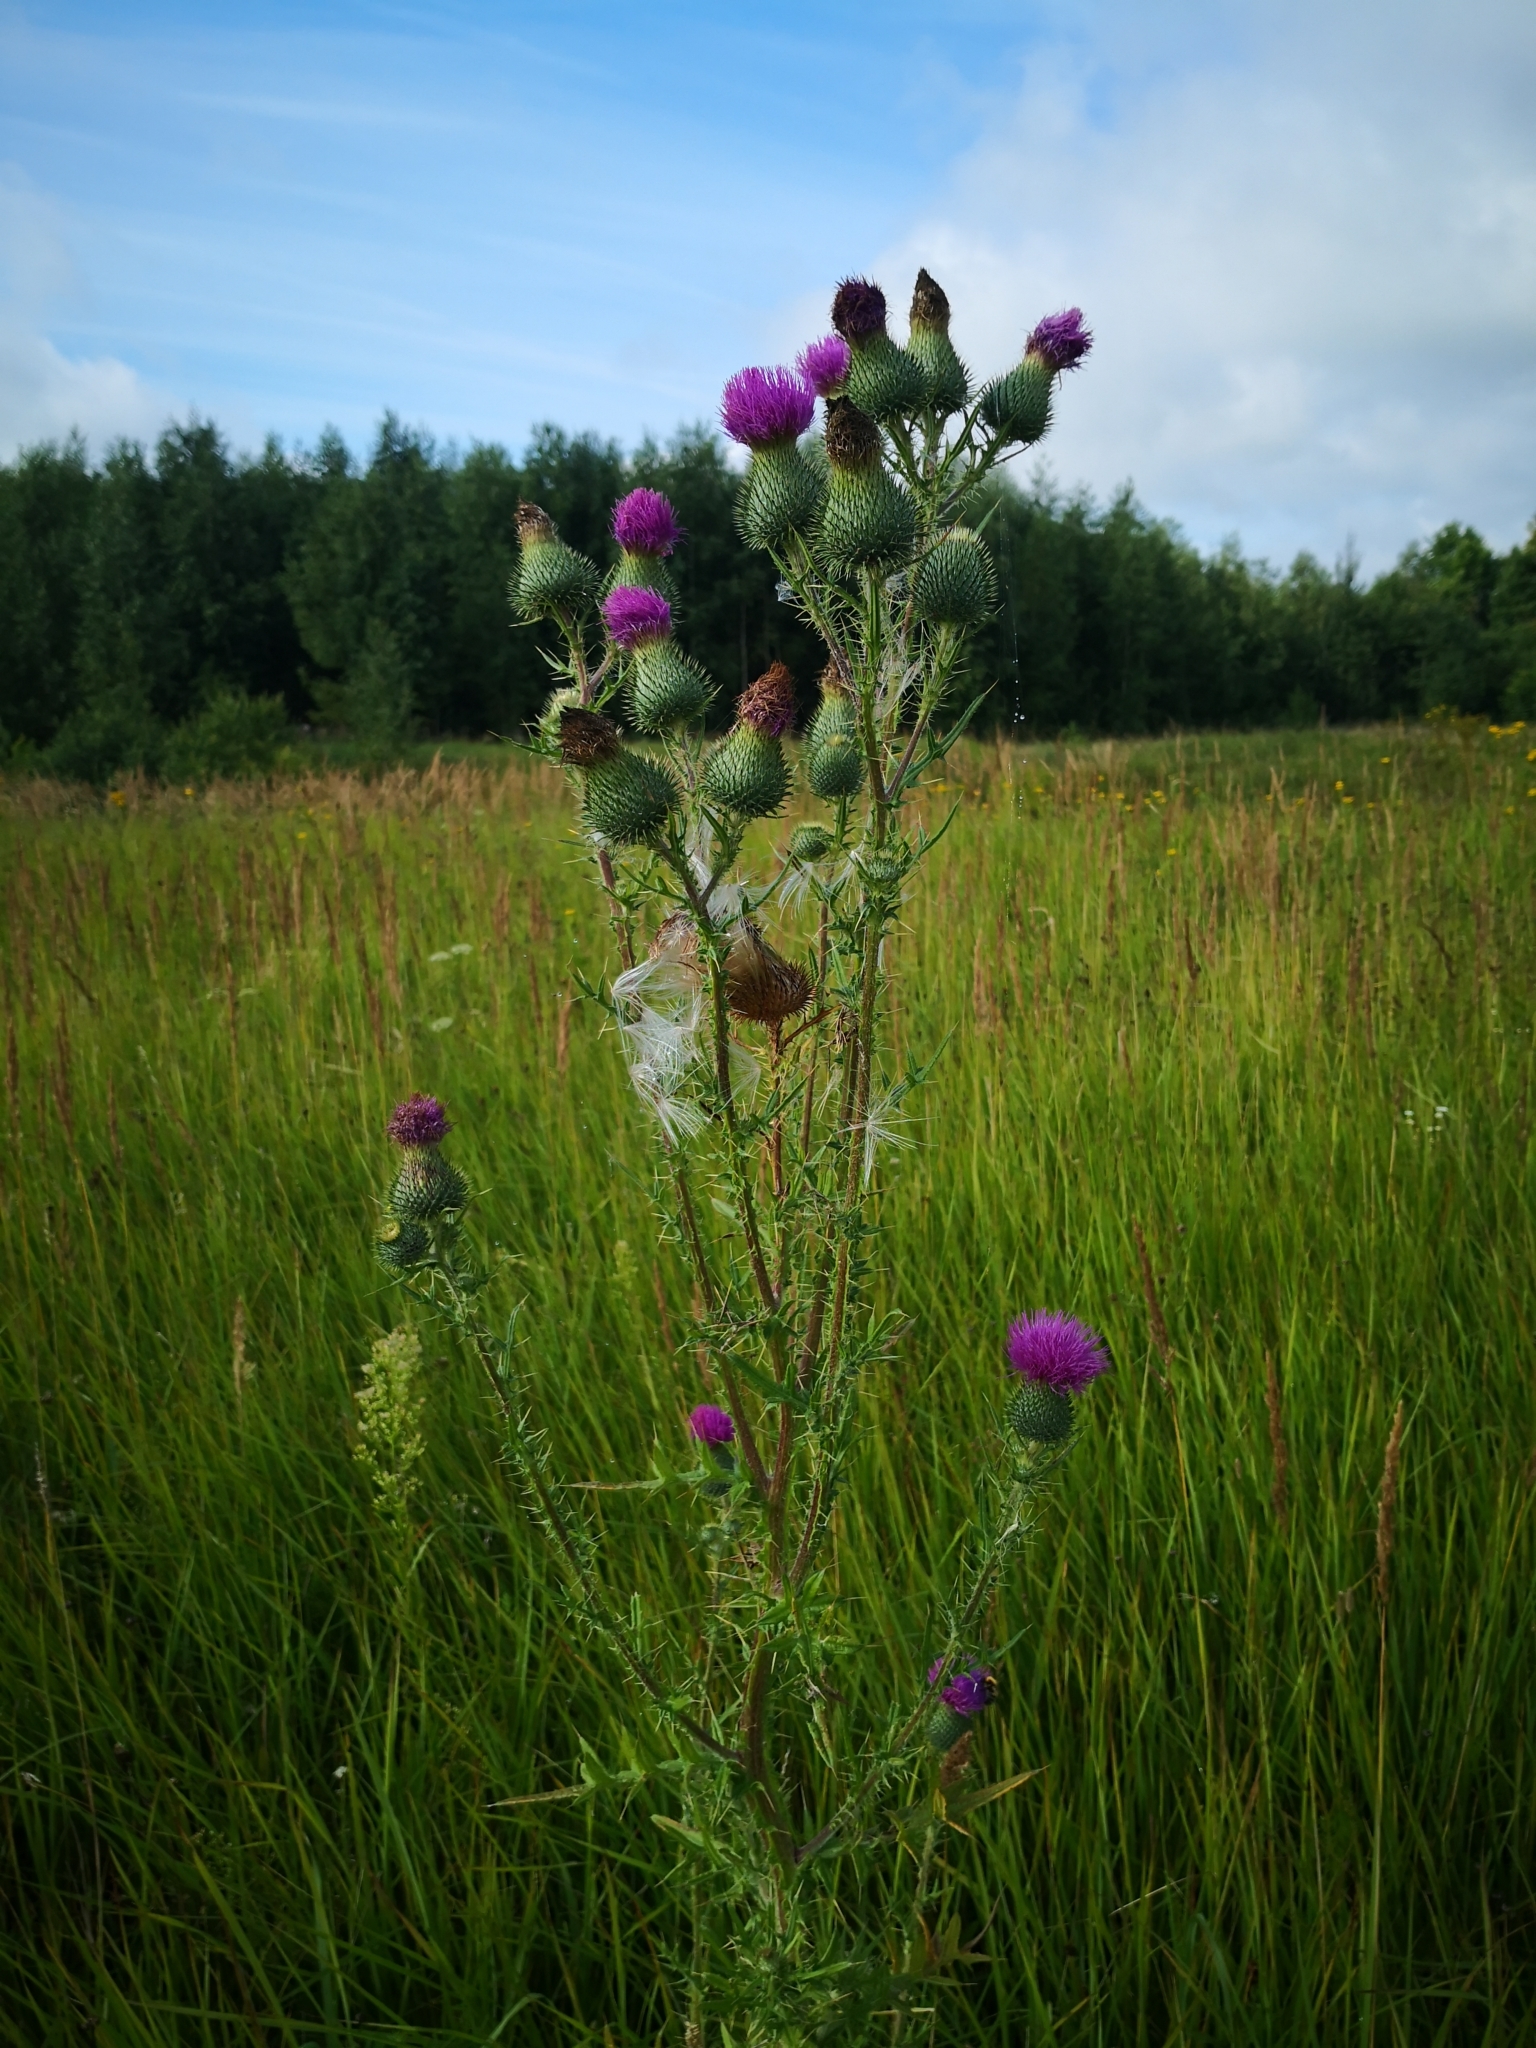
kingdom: Plantae
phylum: Tracheophyta
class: Magnoliopsida
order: Asterales
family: Asteraceae
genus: Cirsium
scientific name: Cirsium vulgare
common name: Bull thistle
